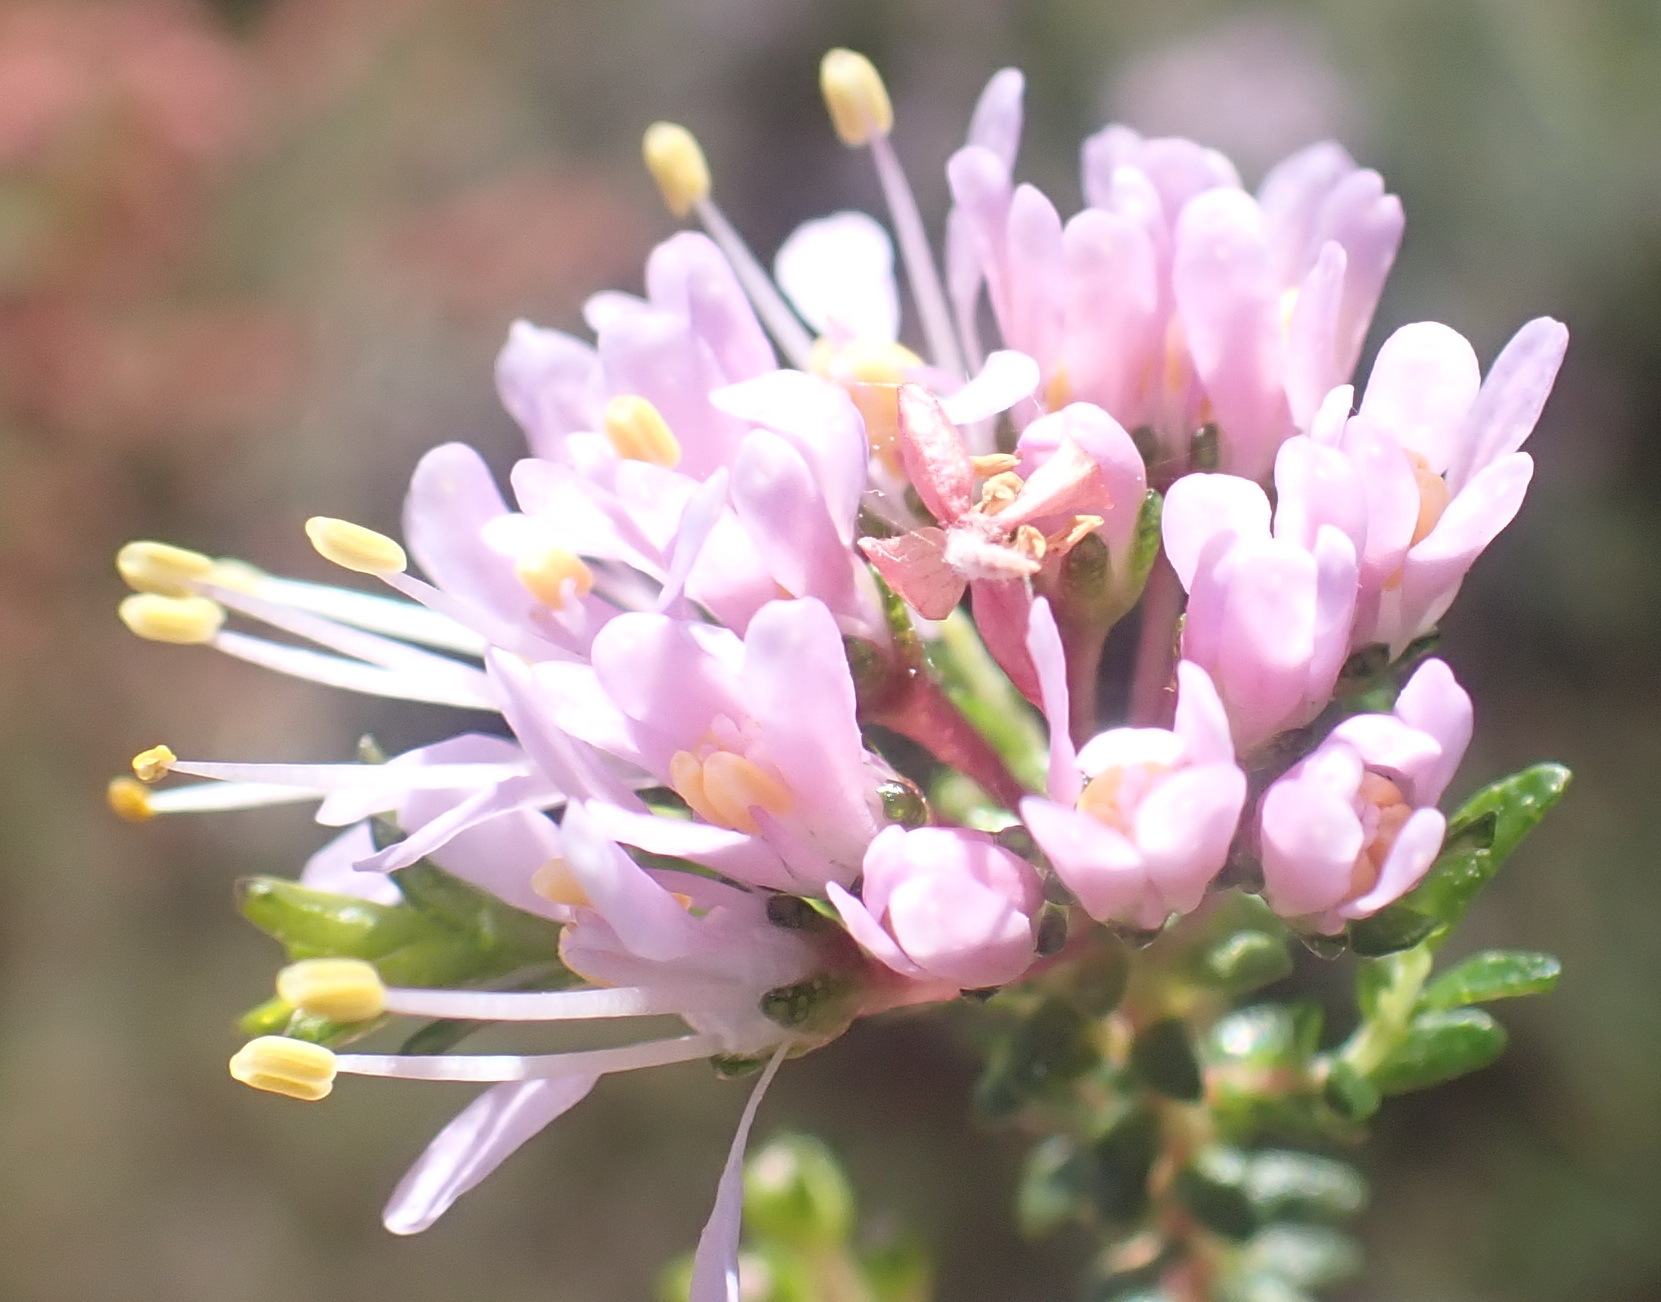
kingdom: Plantae
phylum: Tracheophyta
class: Magnoliopsida
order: Sapindales
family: Rutaceae
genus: Agathosma
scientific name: Agathosma capensis
